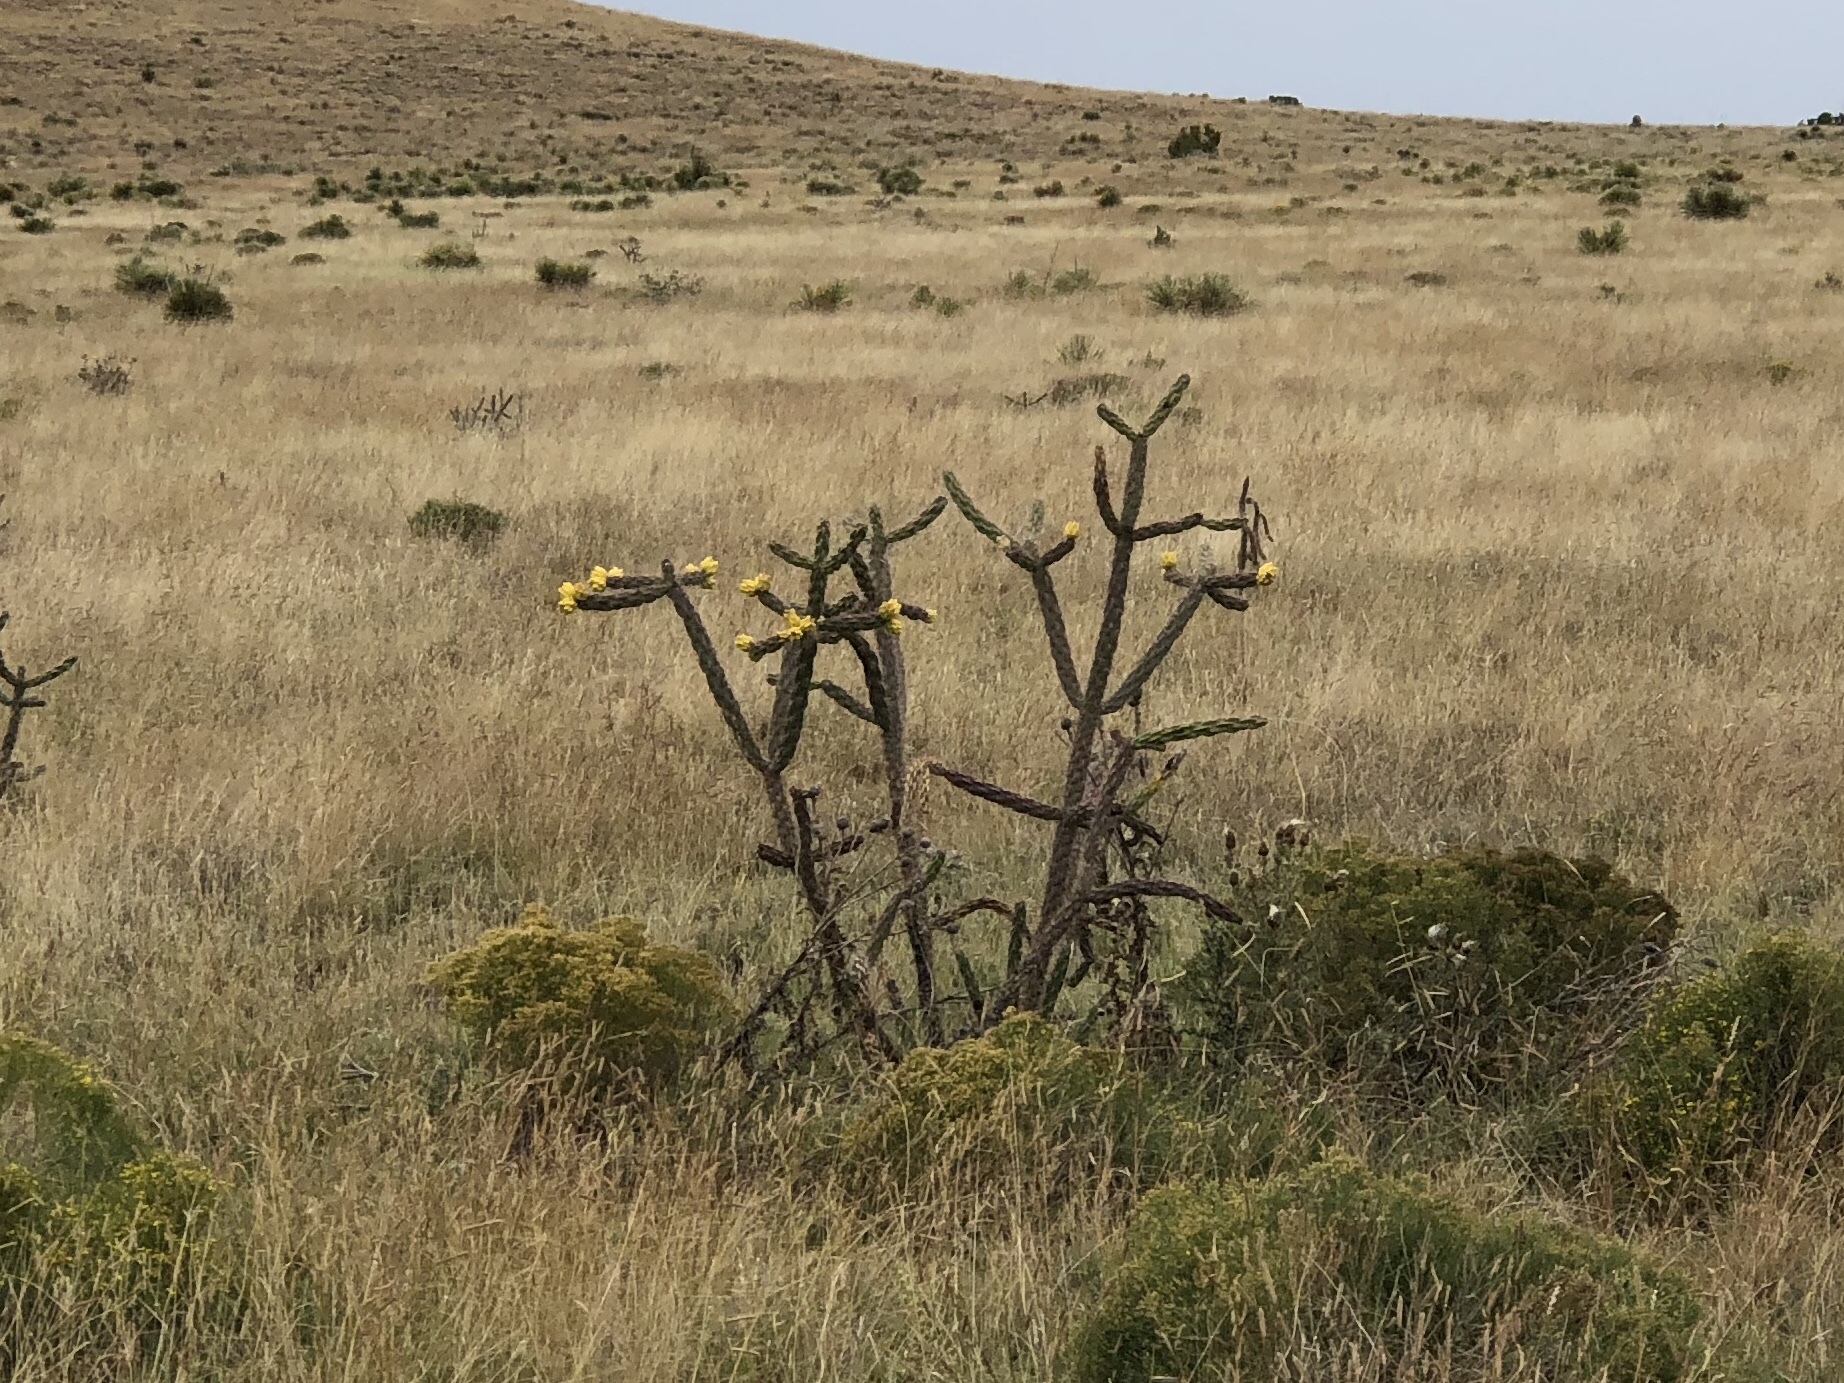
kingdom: Plantae
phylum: Tracheophyta
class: Magnoliopsida
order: Caryophyllales
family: Cactaceae
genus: Cylindropuntia
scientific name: Cylindropuntia imbricata
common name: Candelabrum cactus
